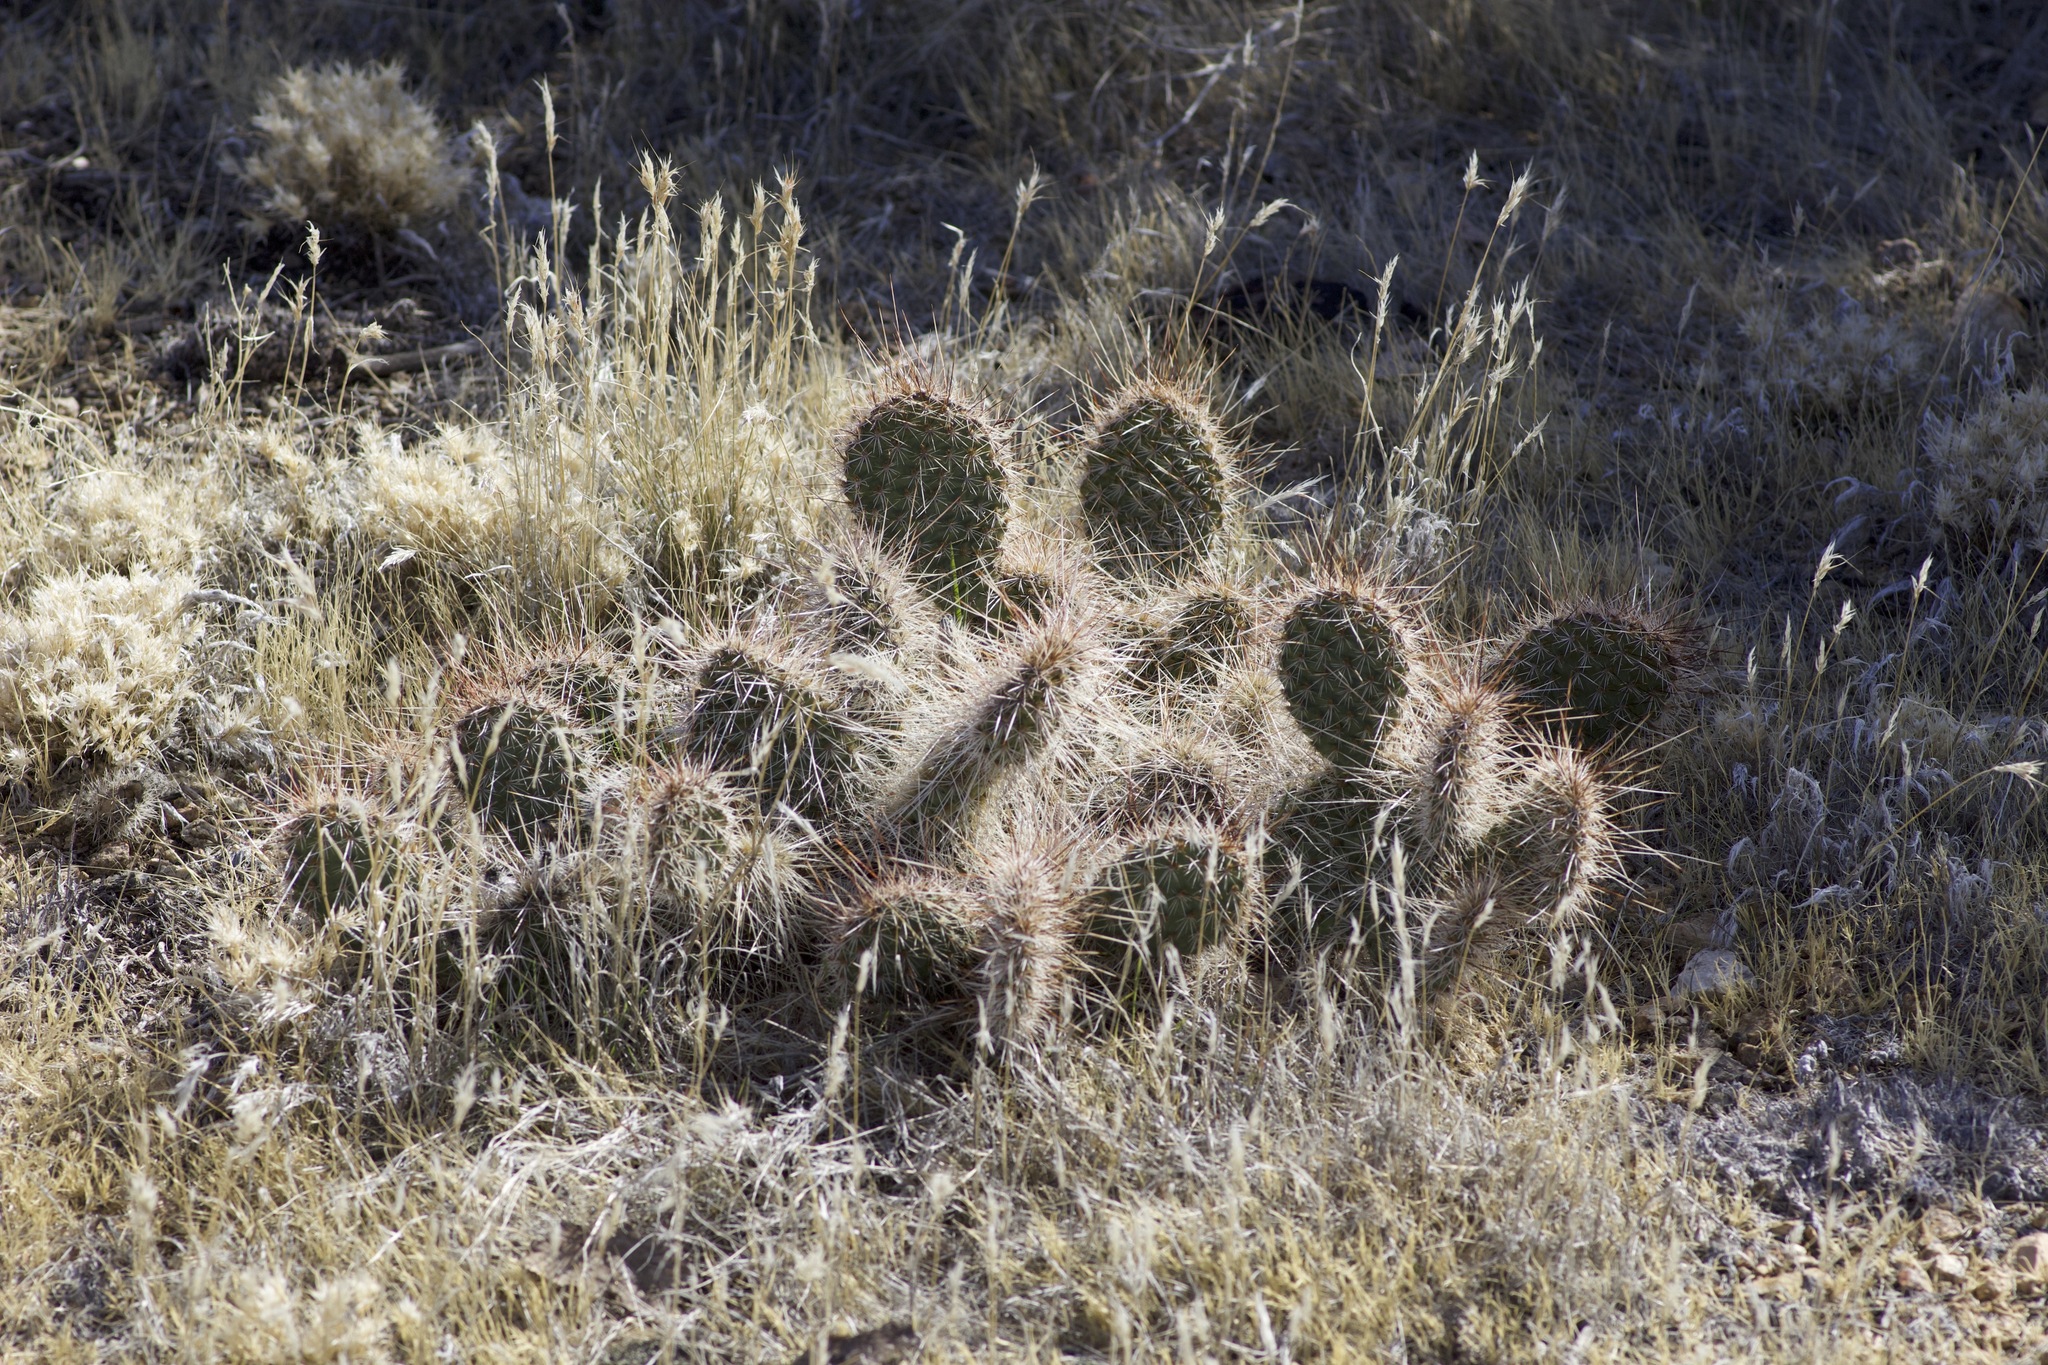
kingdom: Plantae
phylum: Tracheophyta
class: Magnoliopsida
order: Caryophyllales
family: Cactaceae
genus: Opuntia
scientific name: Opuntia polyacantha
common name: Plains prickly-pear
